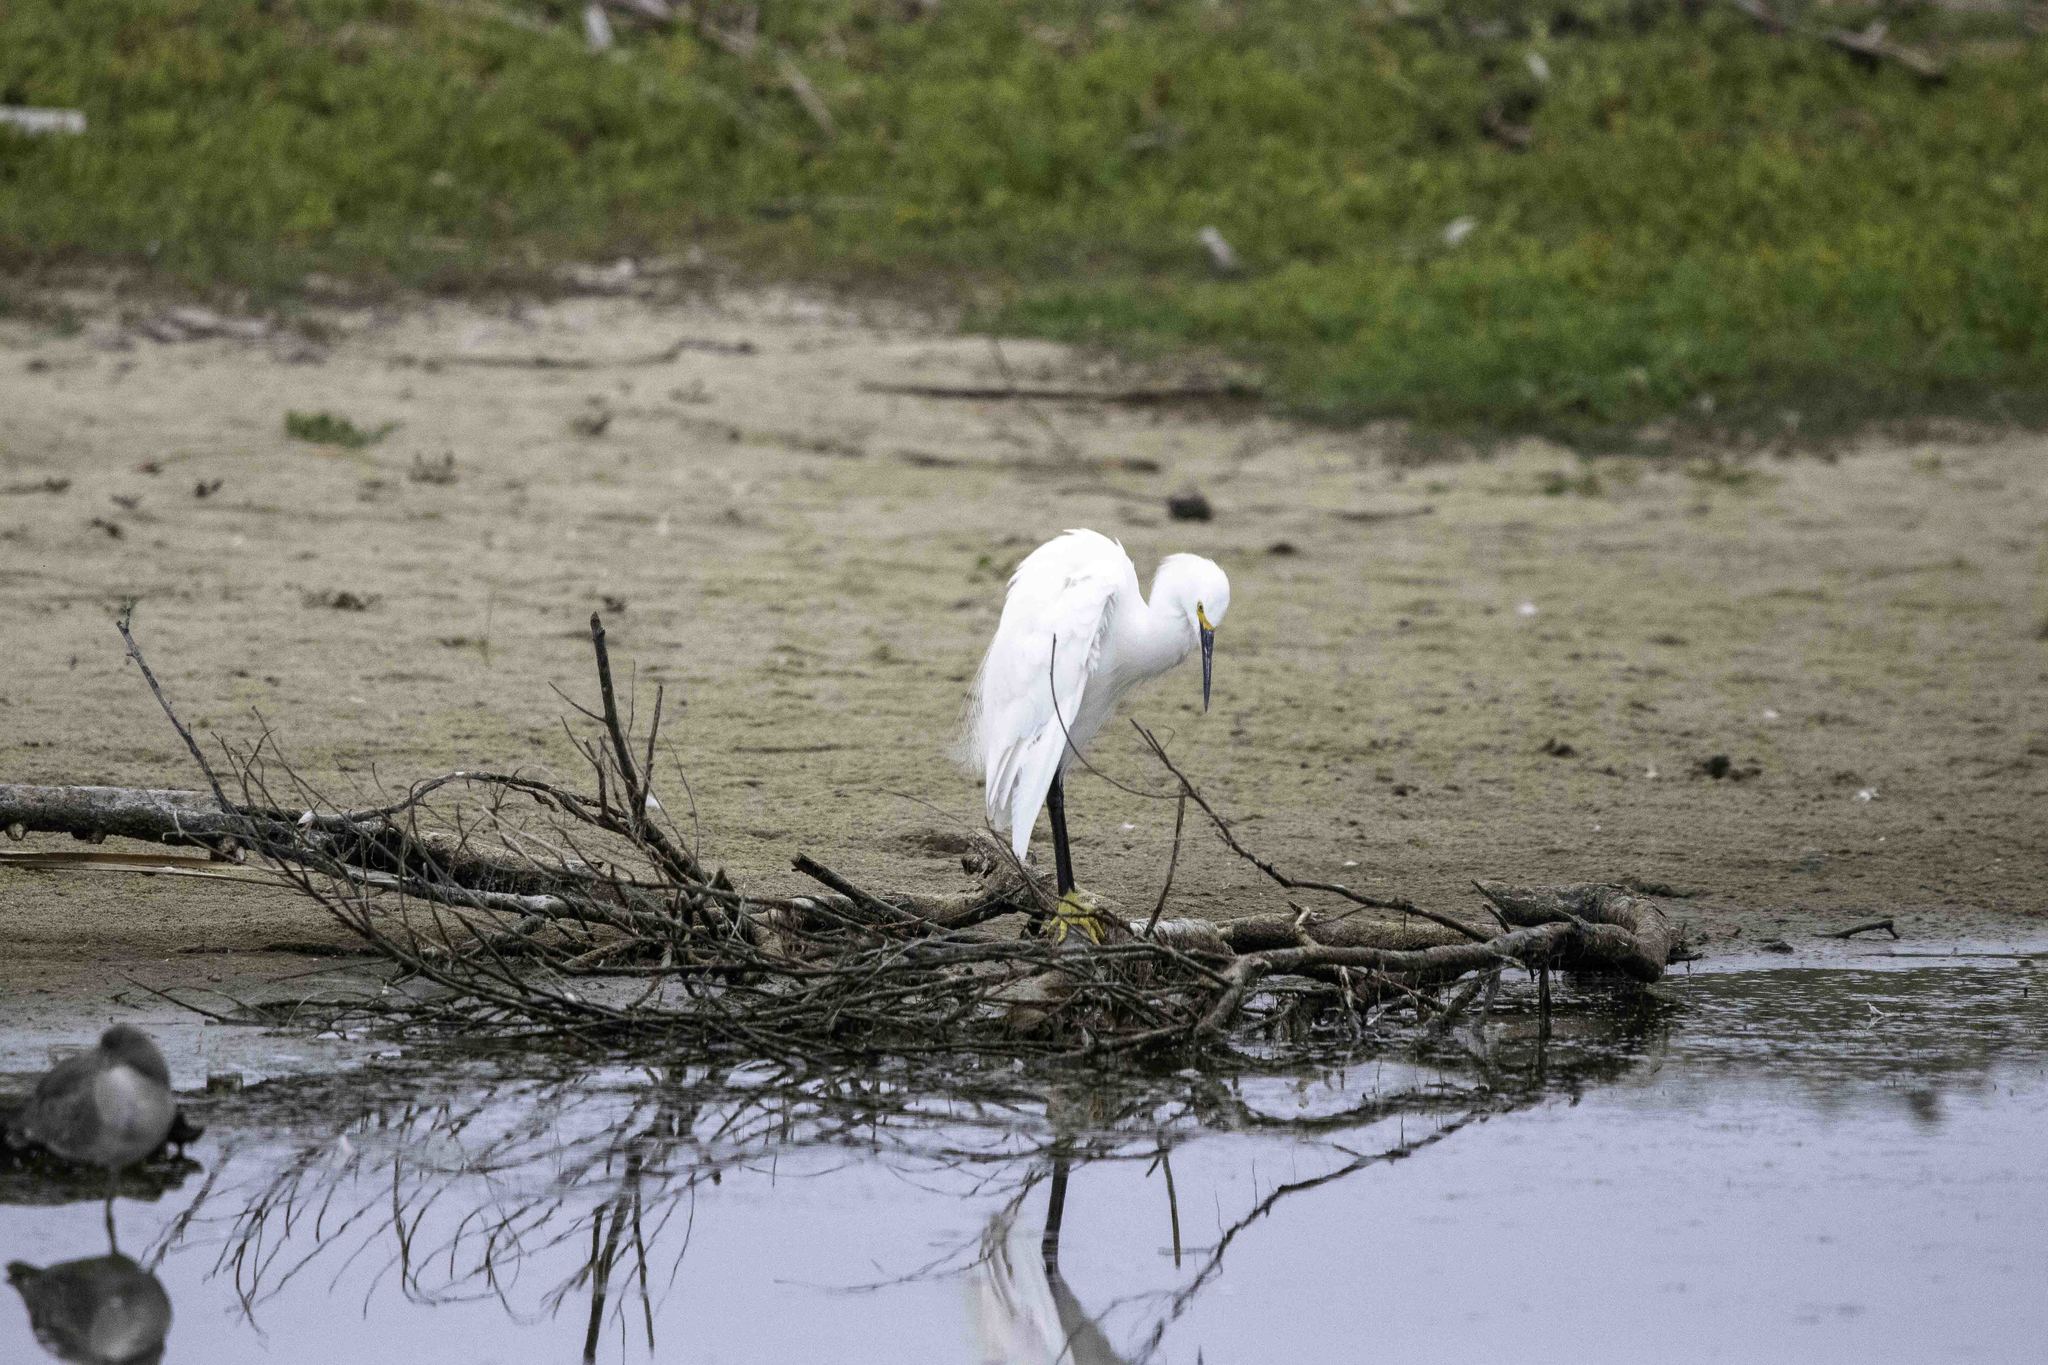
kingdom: Animalia
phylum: Chordata
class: Aves
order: Pelecaniformes
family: Ardeidae
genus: Egretta
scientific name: Egretta thula
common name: Snowy egret
